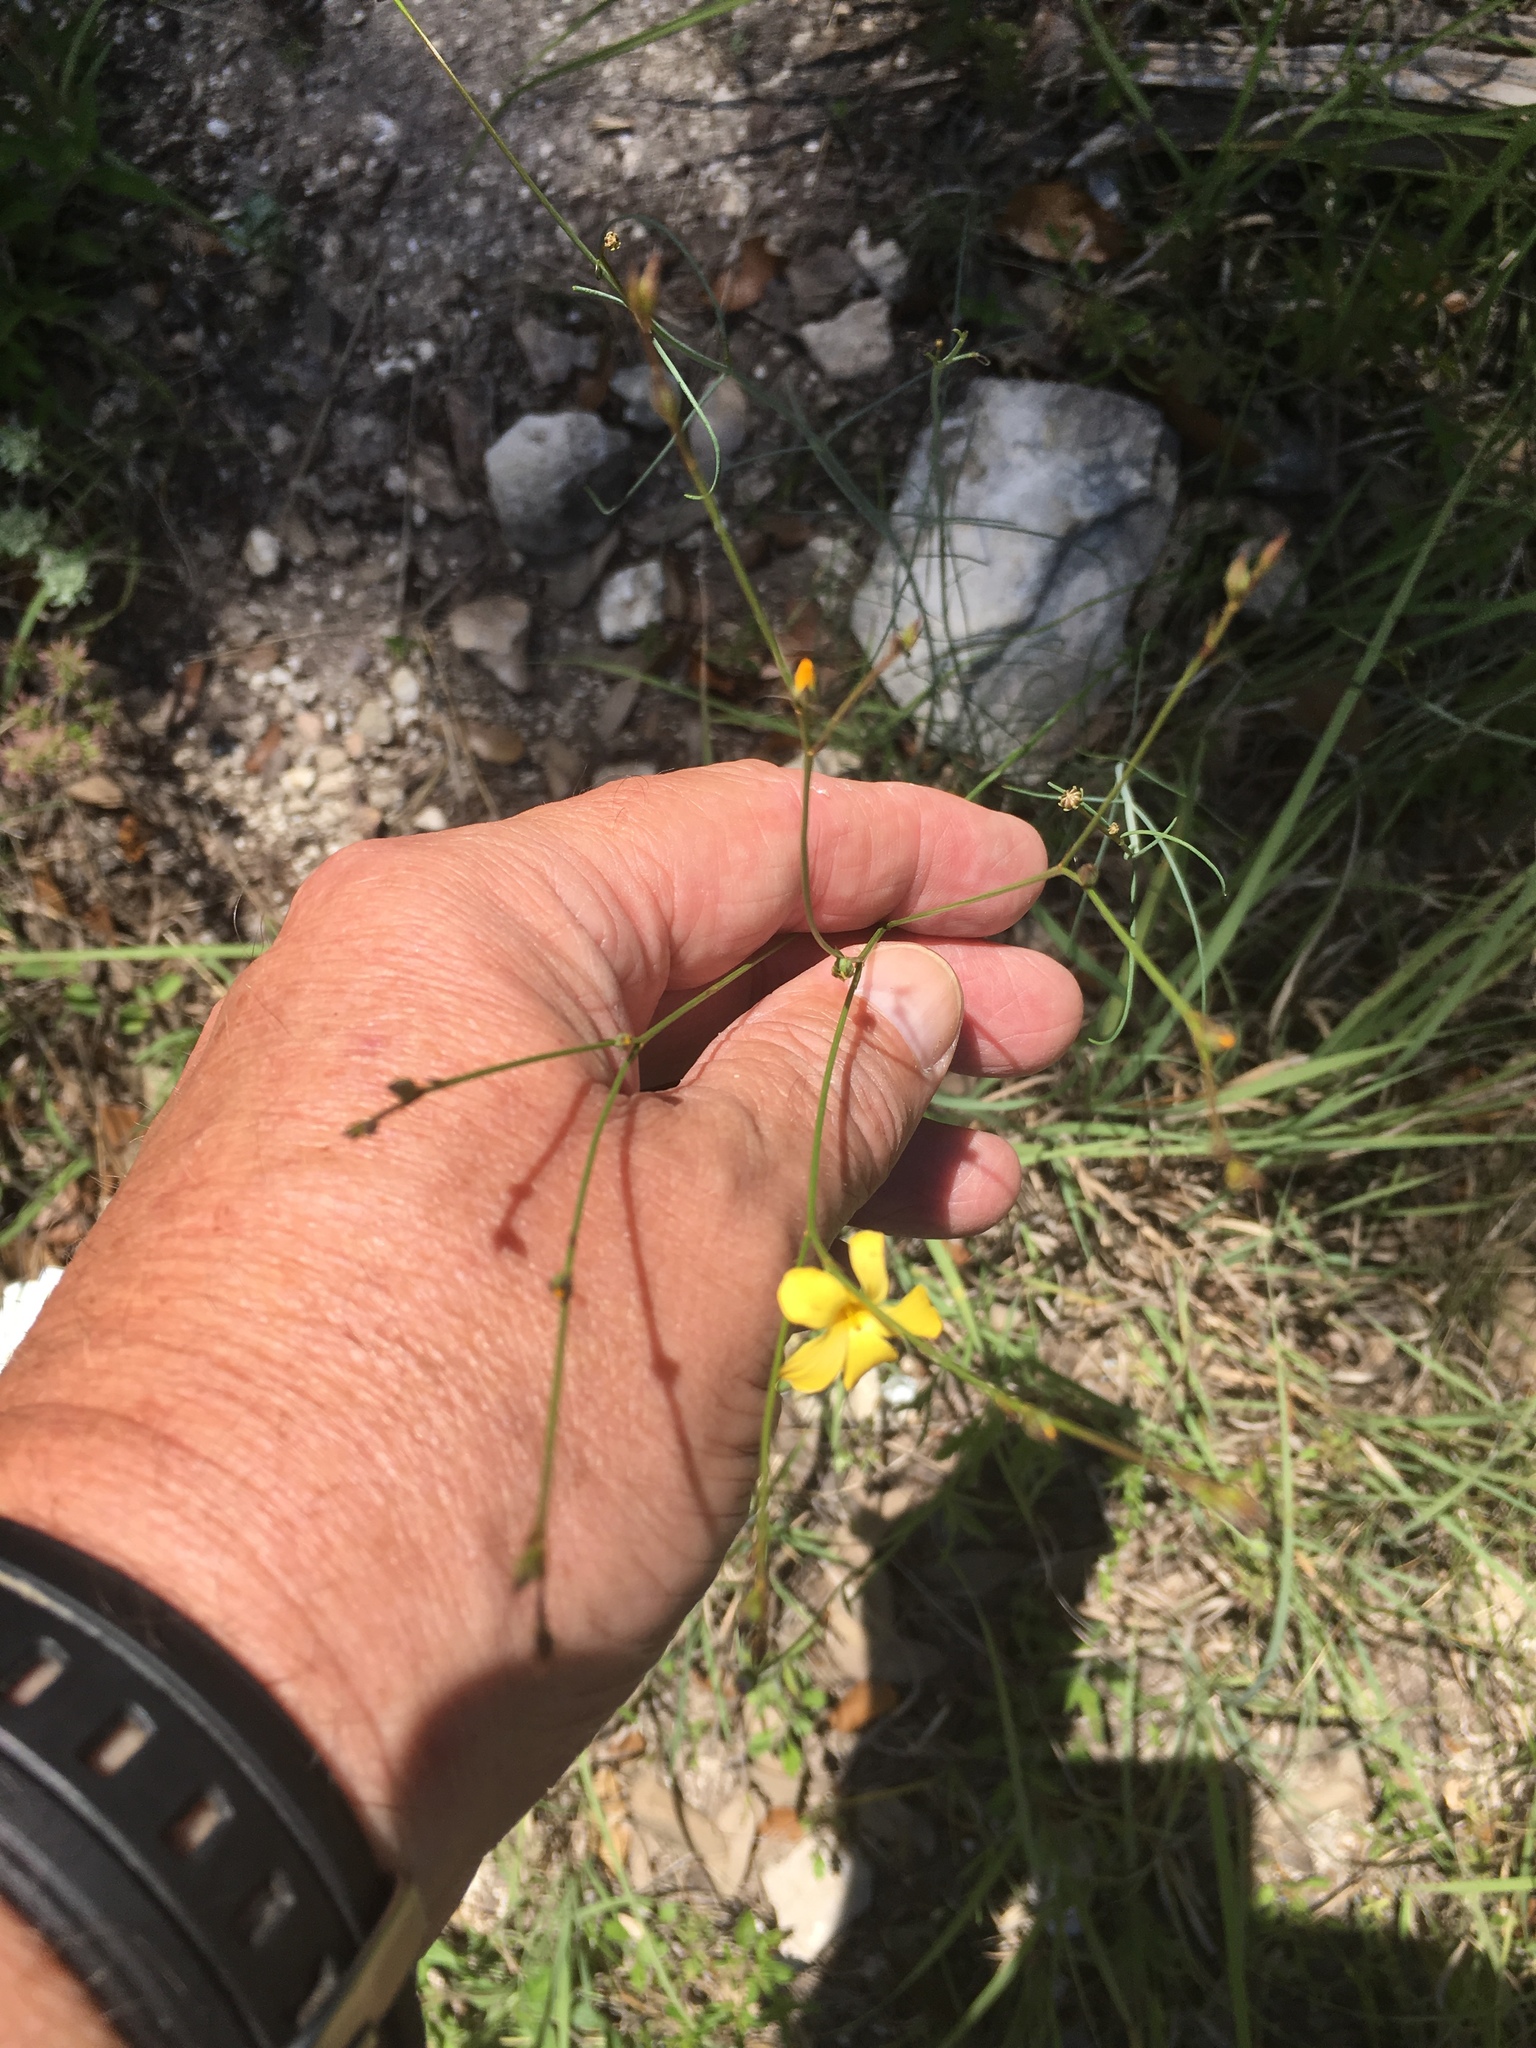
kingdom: Plantae
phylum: Tracheophyta
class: Magnoliopsida
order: Malpighiales
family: Linaceae
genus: Linum
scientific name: Linum rupestre
